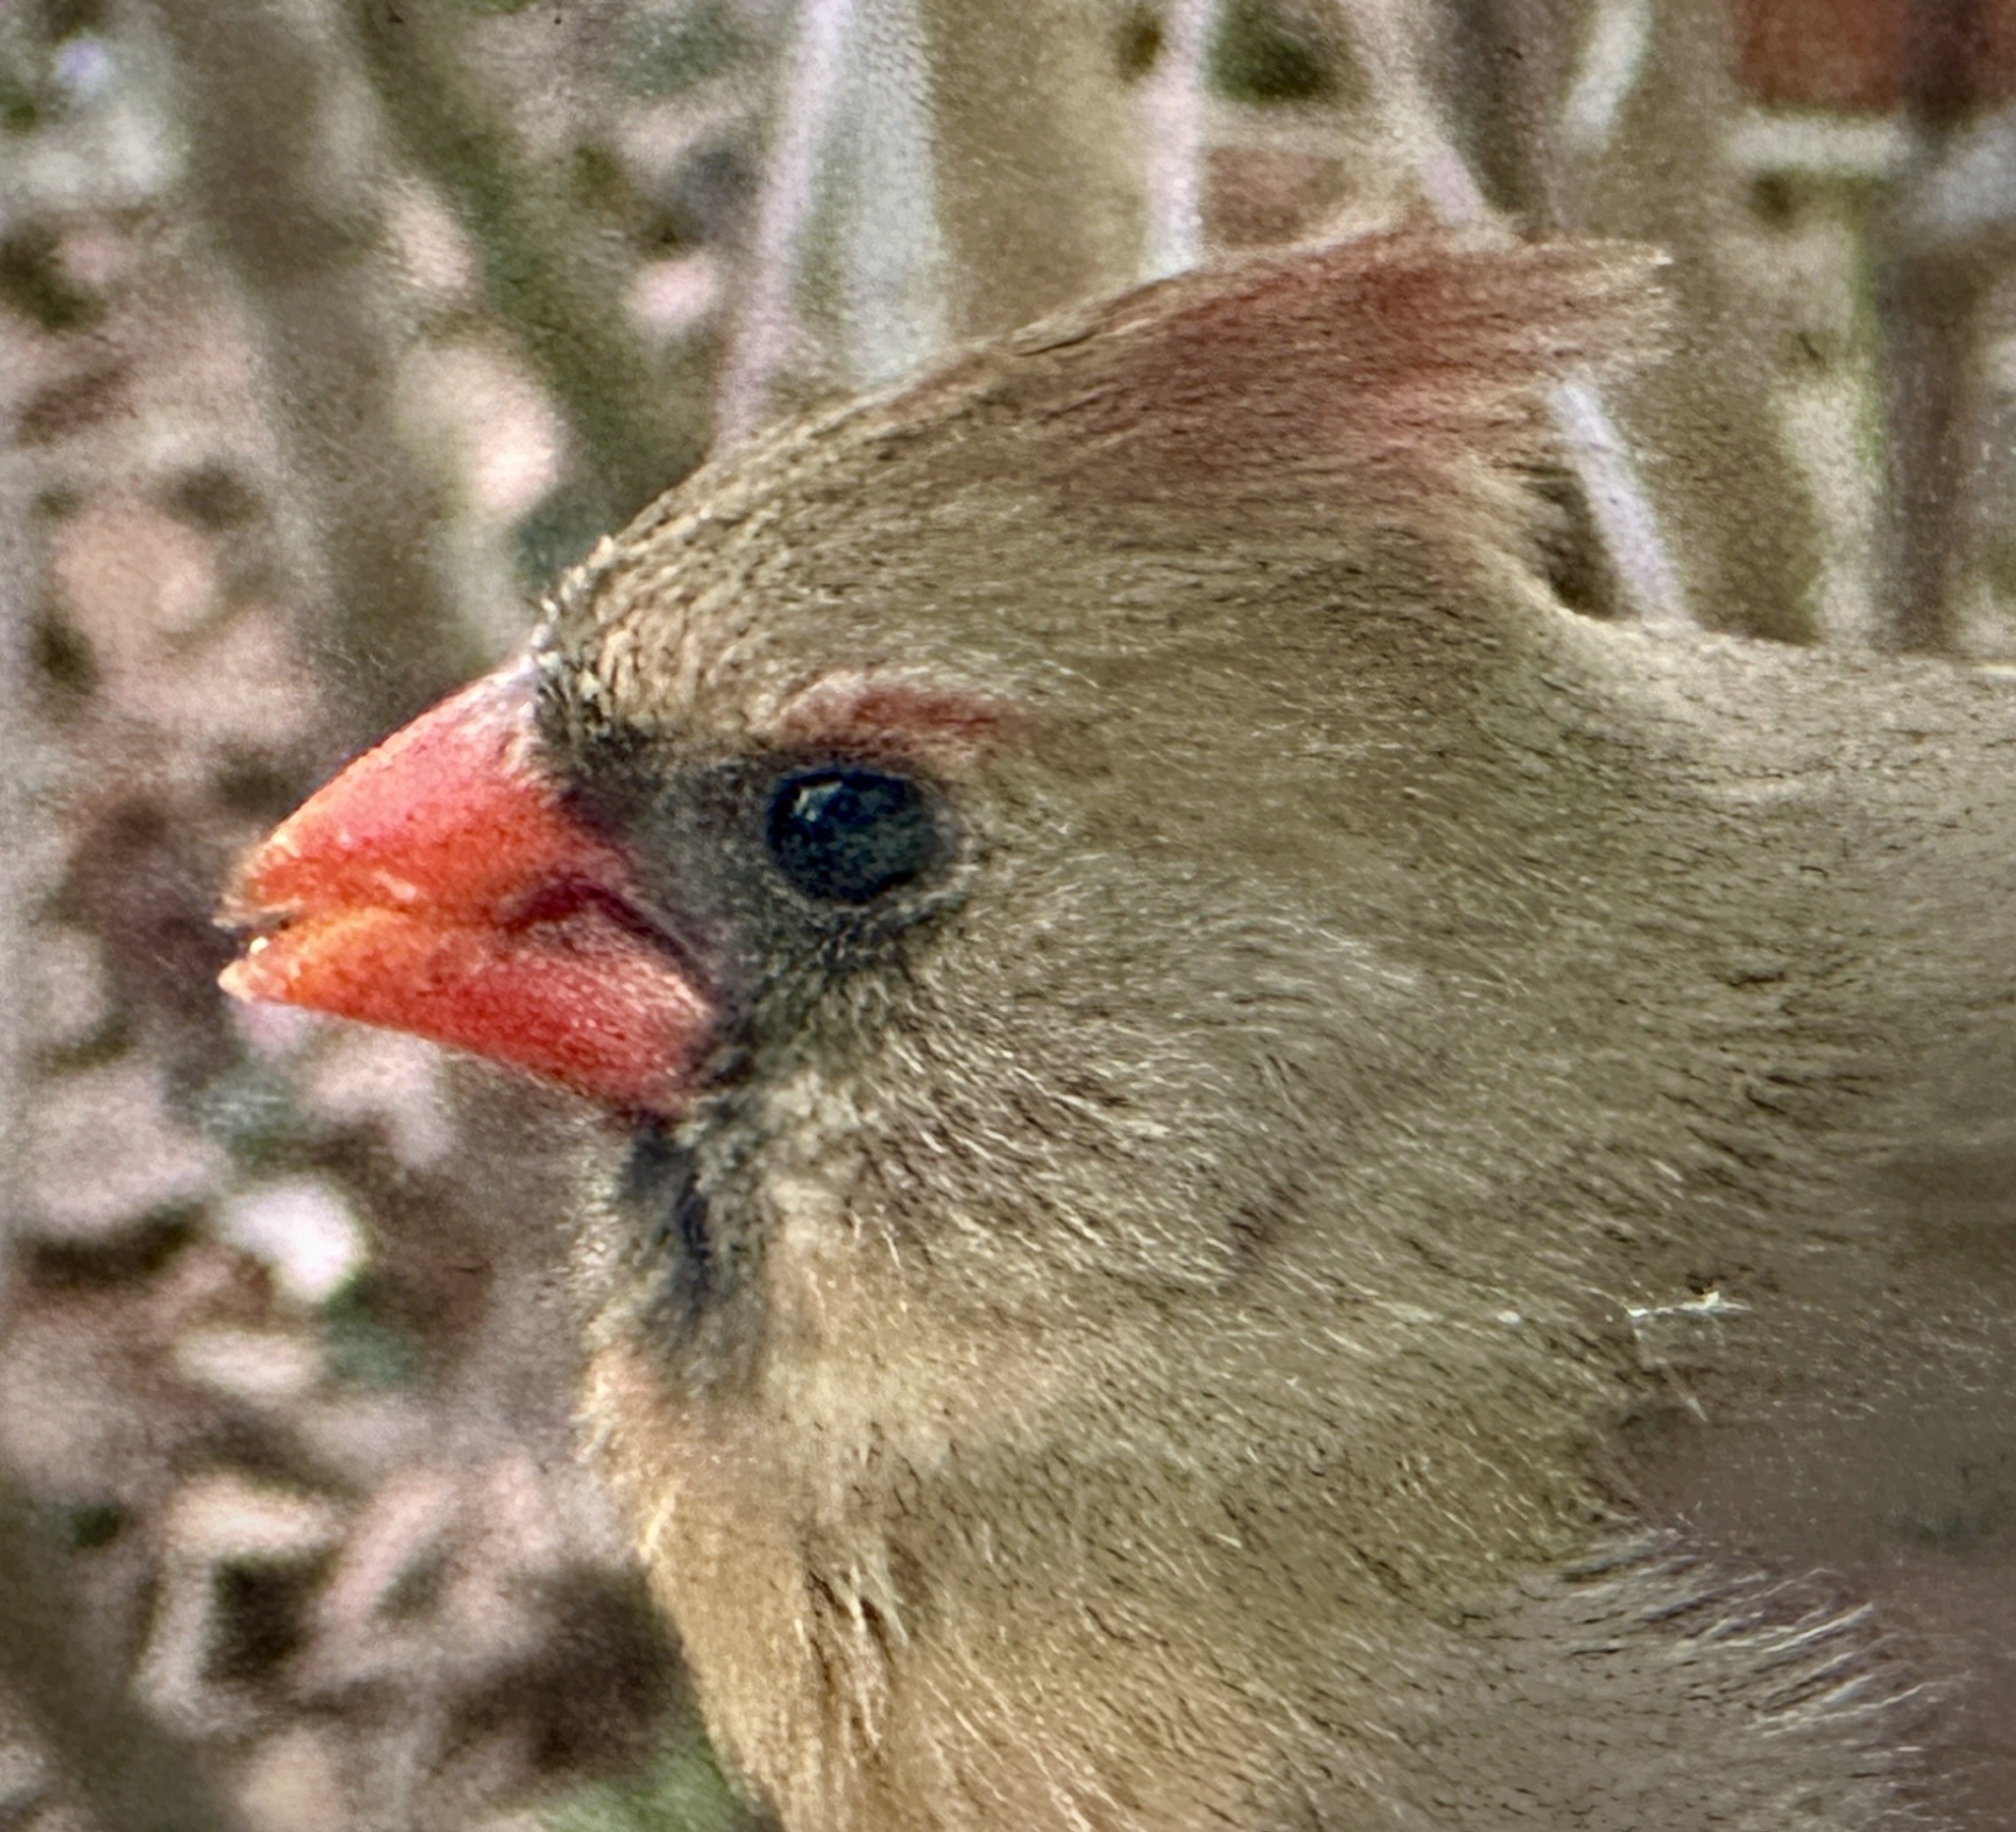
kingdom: Animalia
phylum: Chordata
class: Aves
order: Passeriformes
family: Cardinalidae
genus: Cardinalis
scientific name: Cardinalis cardinalis
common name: Northern cardinal
